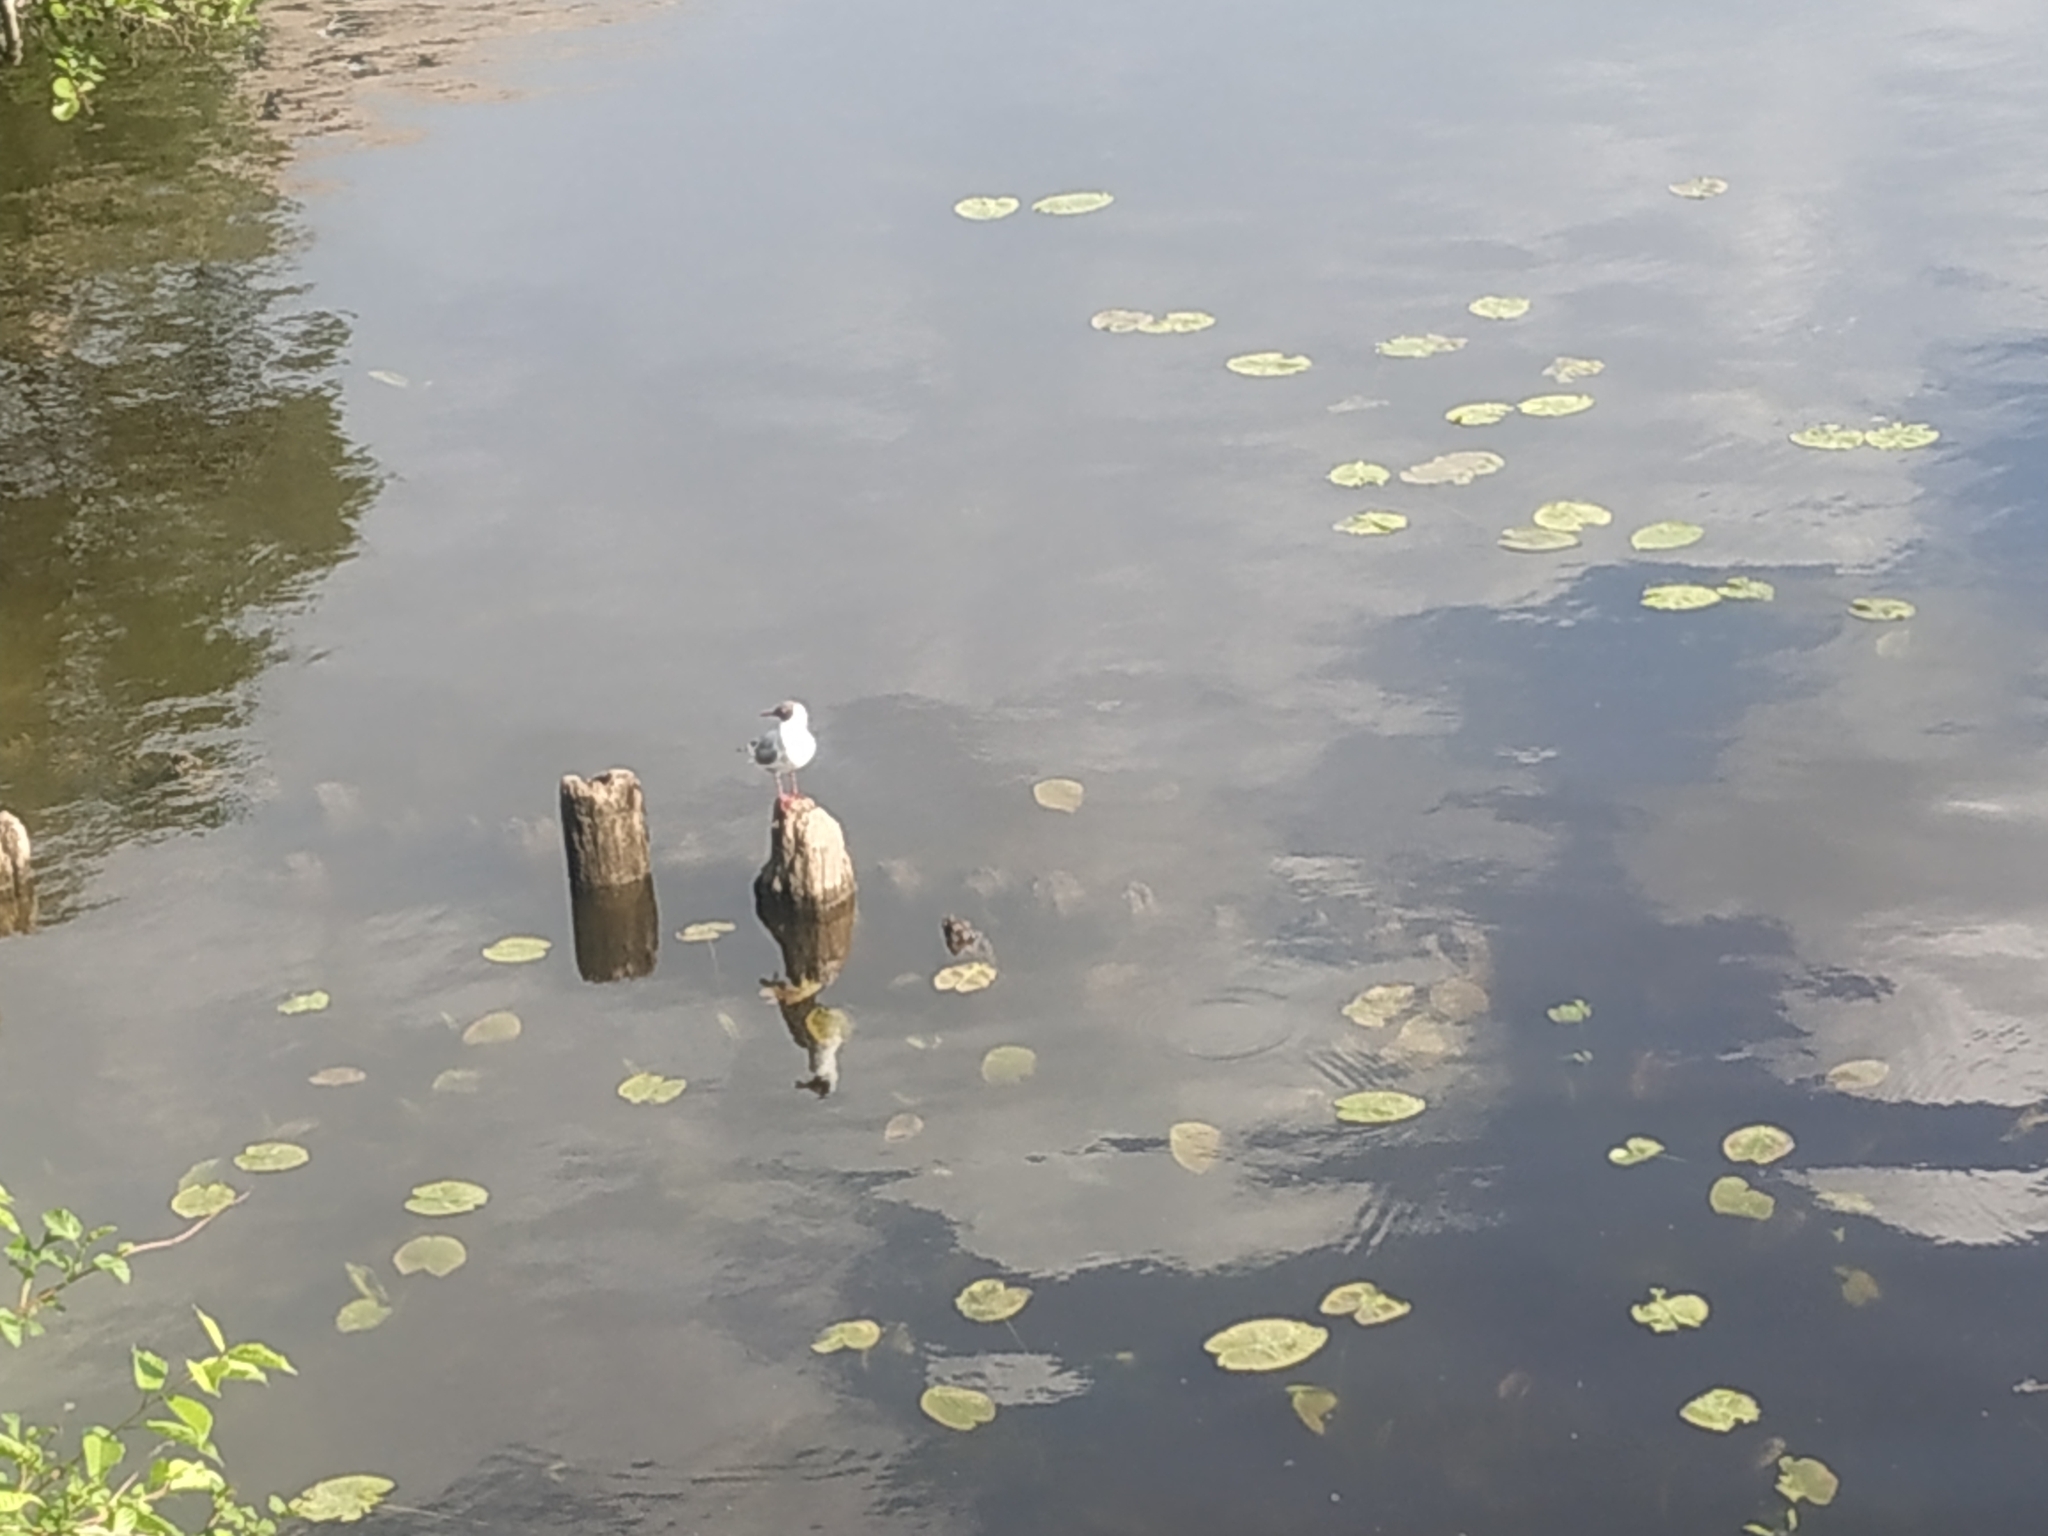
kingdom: Animalia
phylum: Chordata
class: Aves
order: Charadriiformes
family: Laridae
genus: Chroicocephalus
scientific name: Chroicocephalus ridibundus
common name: Black-headed gull
